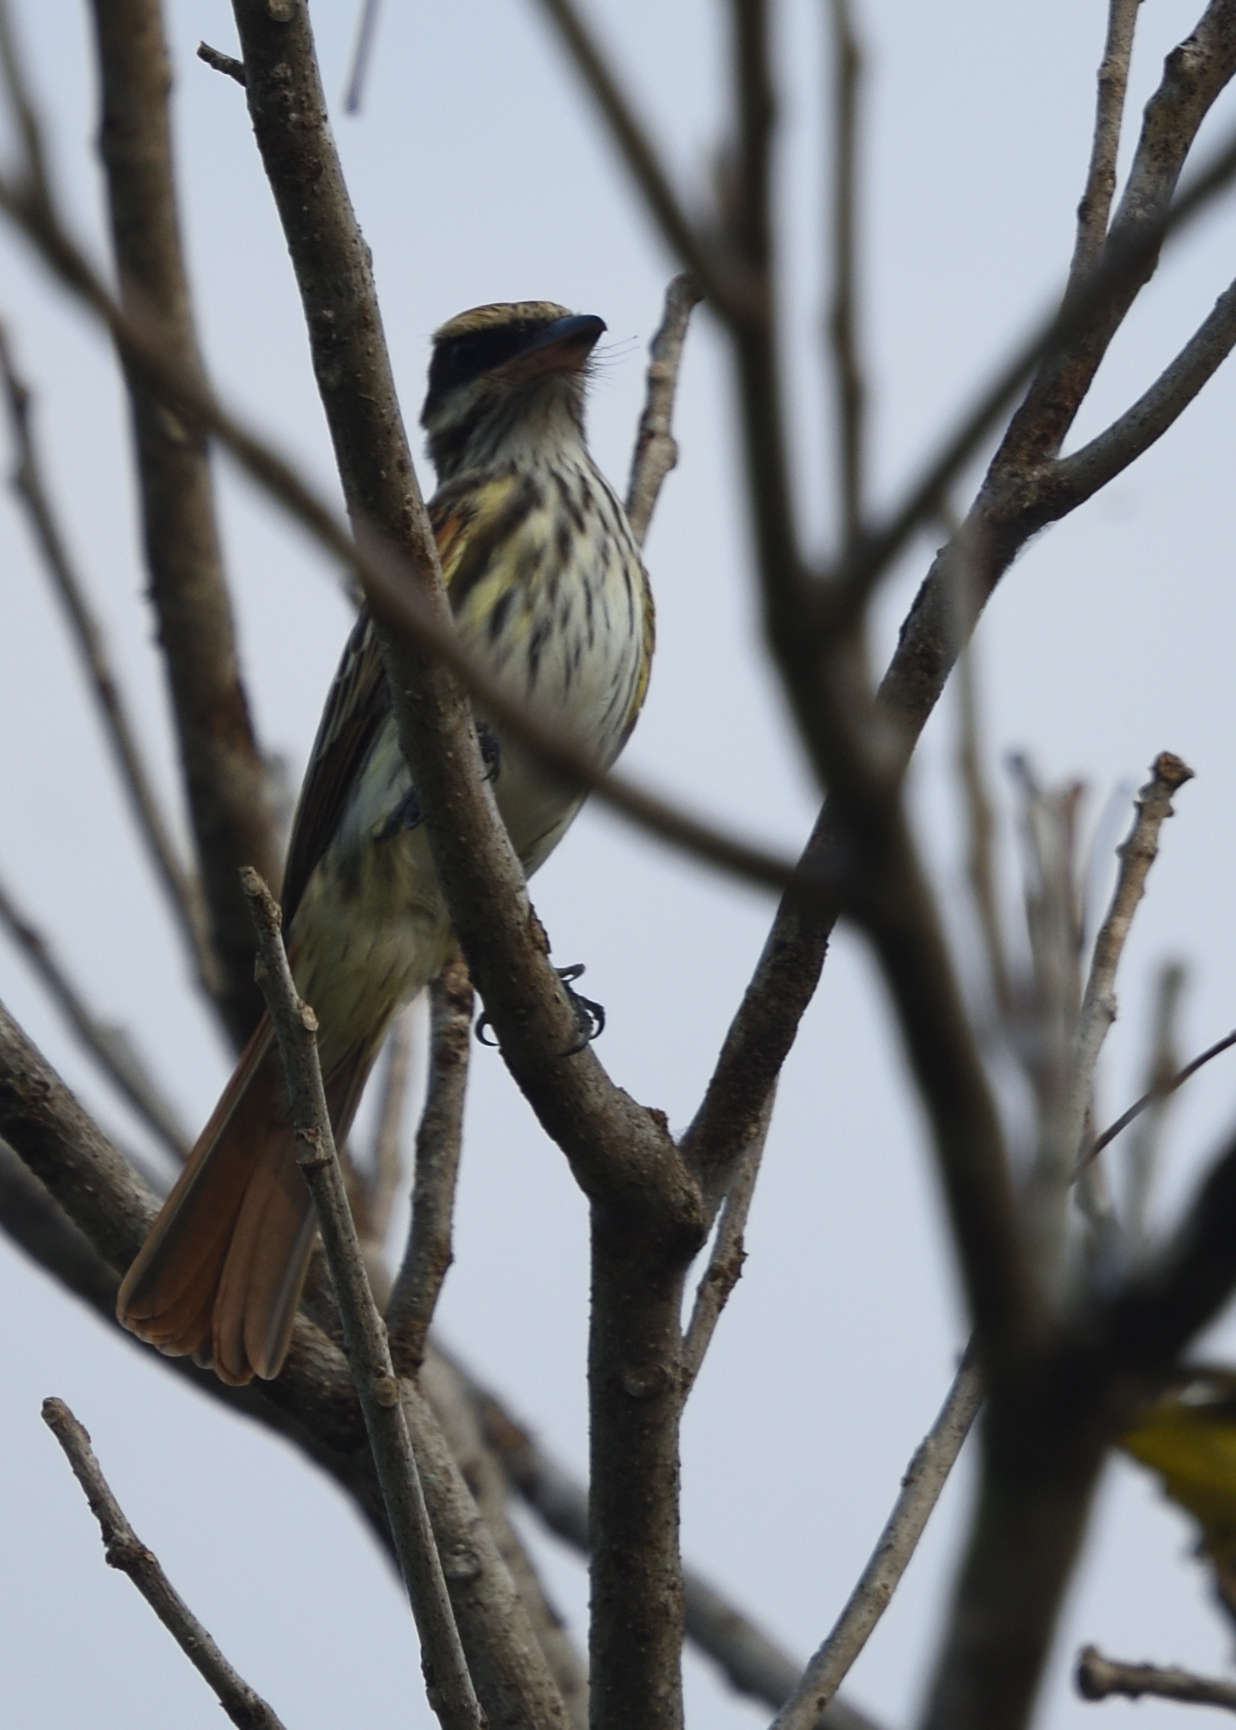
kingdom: Animalia
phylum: Chordata
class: Aves
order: Passeriformes
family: Tyrannidae
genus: Myiodynastes
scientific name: Myiodynastes maculatus
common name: Streaked flycatcher
